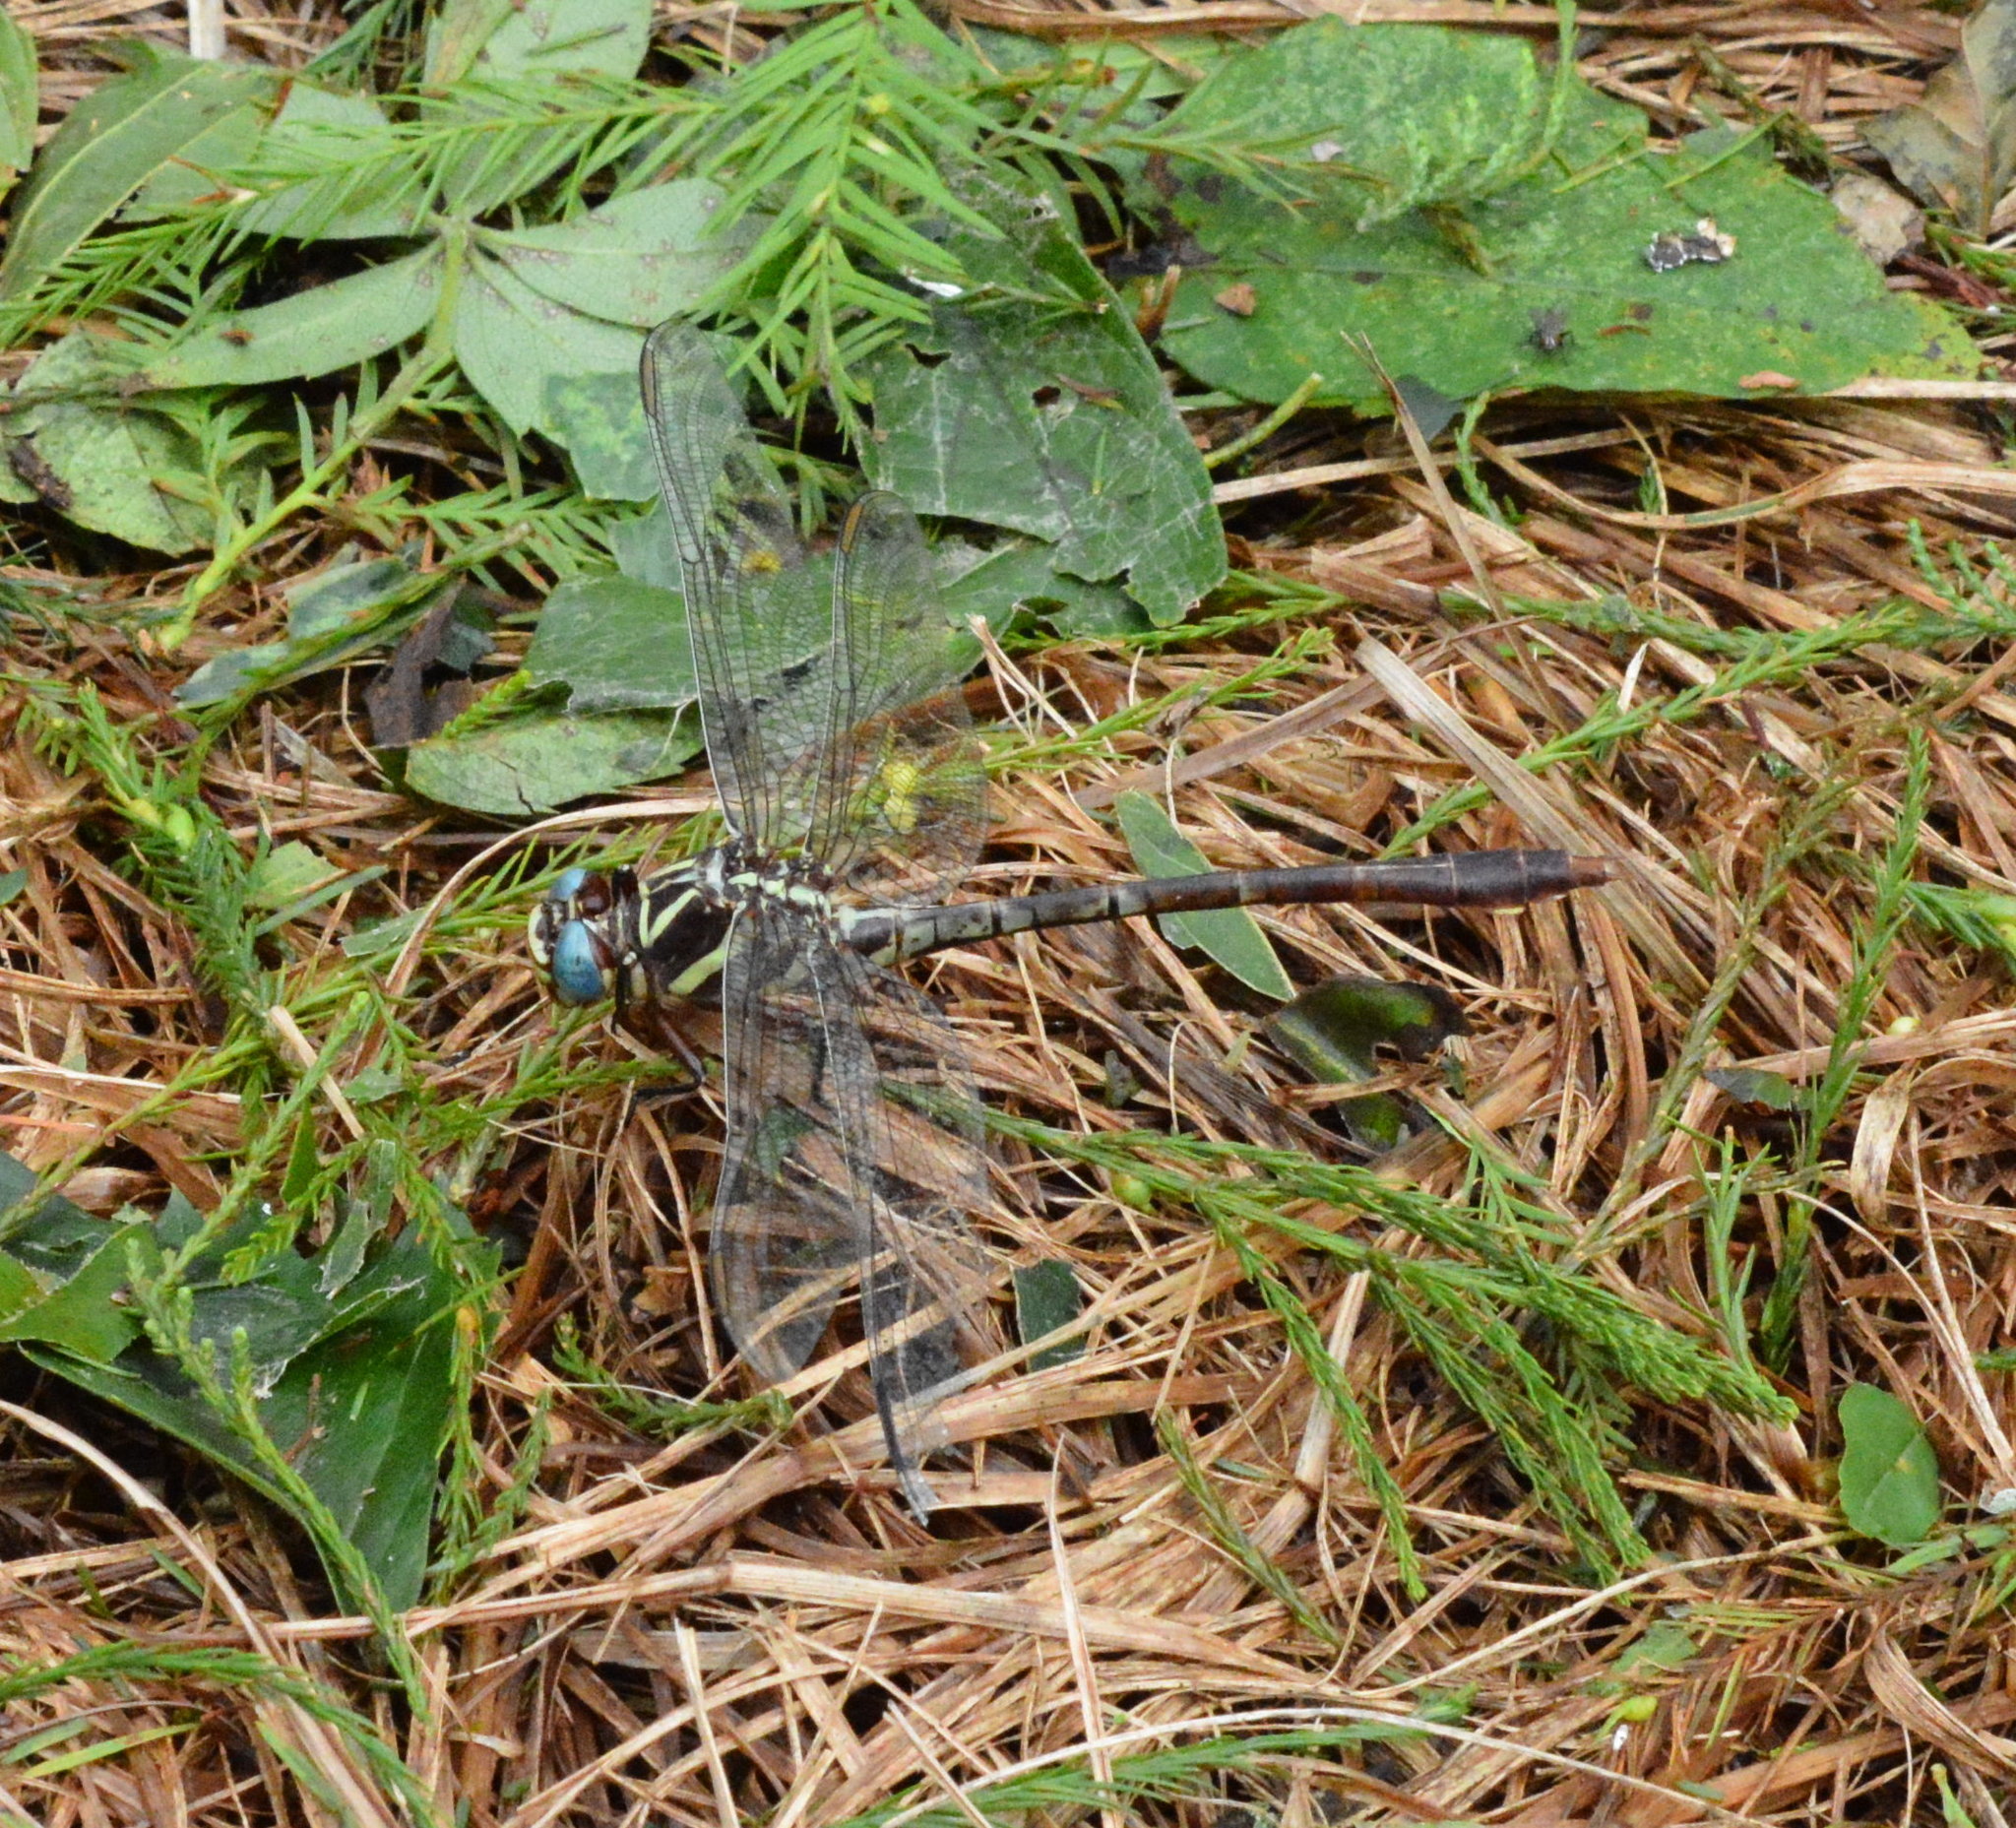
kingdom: Animalia
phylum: Arthropoda
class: Insecta
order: Odonata
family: Gomphidae
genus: Aphylla
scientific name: Aphylla williamsoni
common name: Two-striped forceptail
